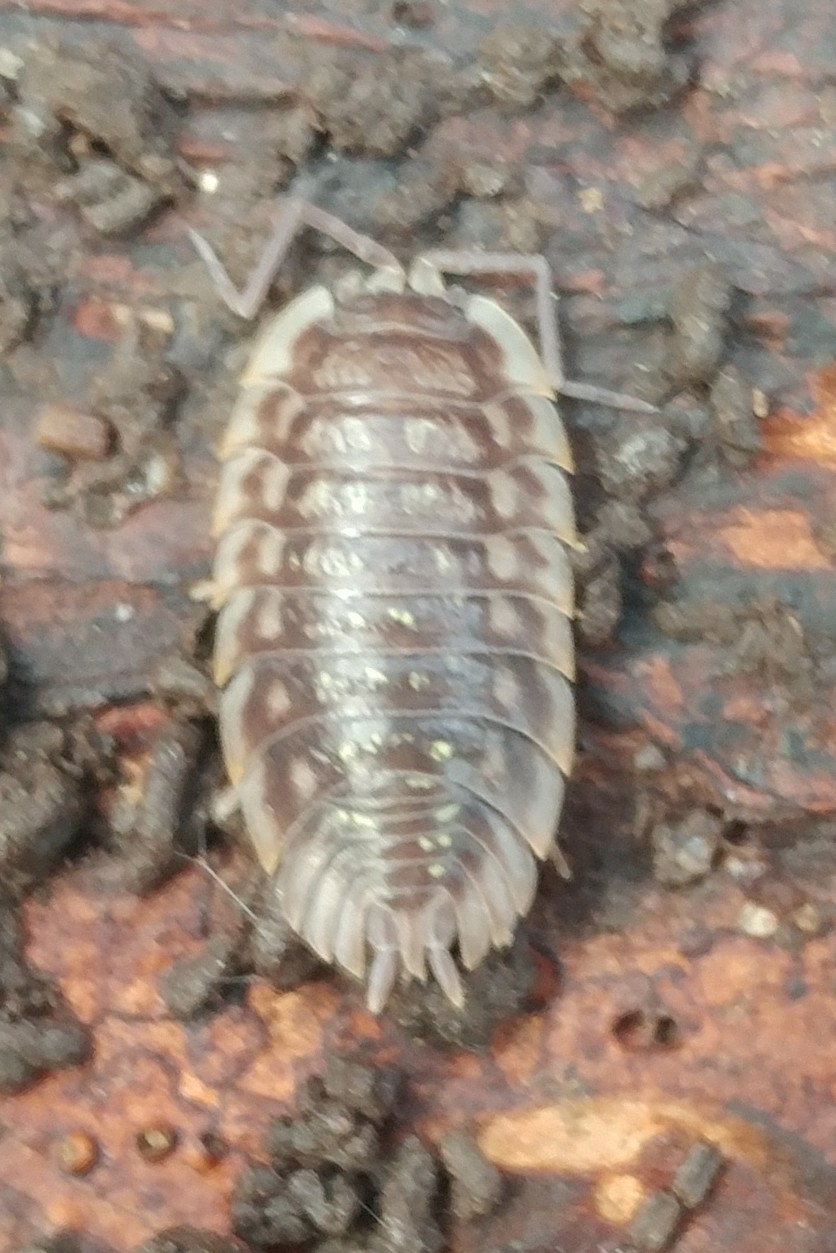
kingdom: Animalia
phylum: Arthropoda
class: Malacostraca
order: Isopoda
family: Oniscidae
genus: Oniscus
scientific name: Oniscus asellus
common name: Common shiny woodlouse
